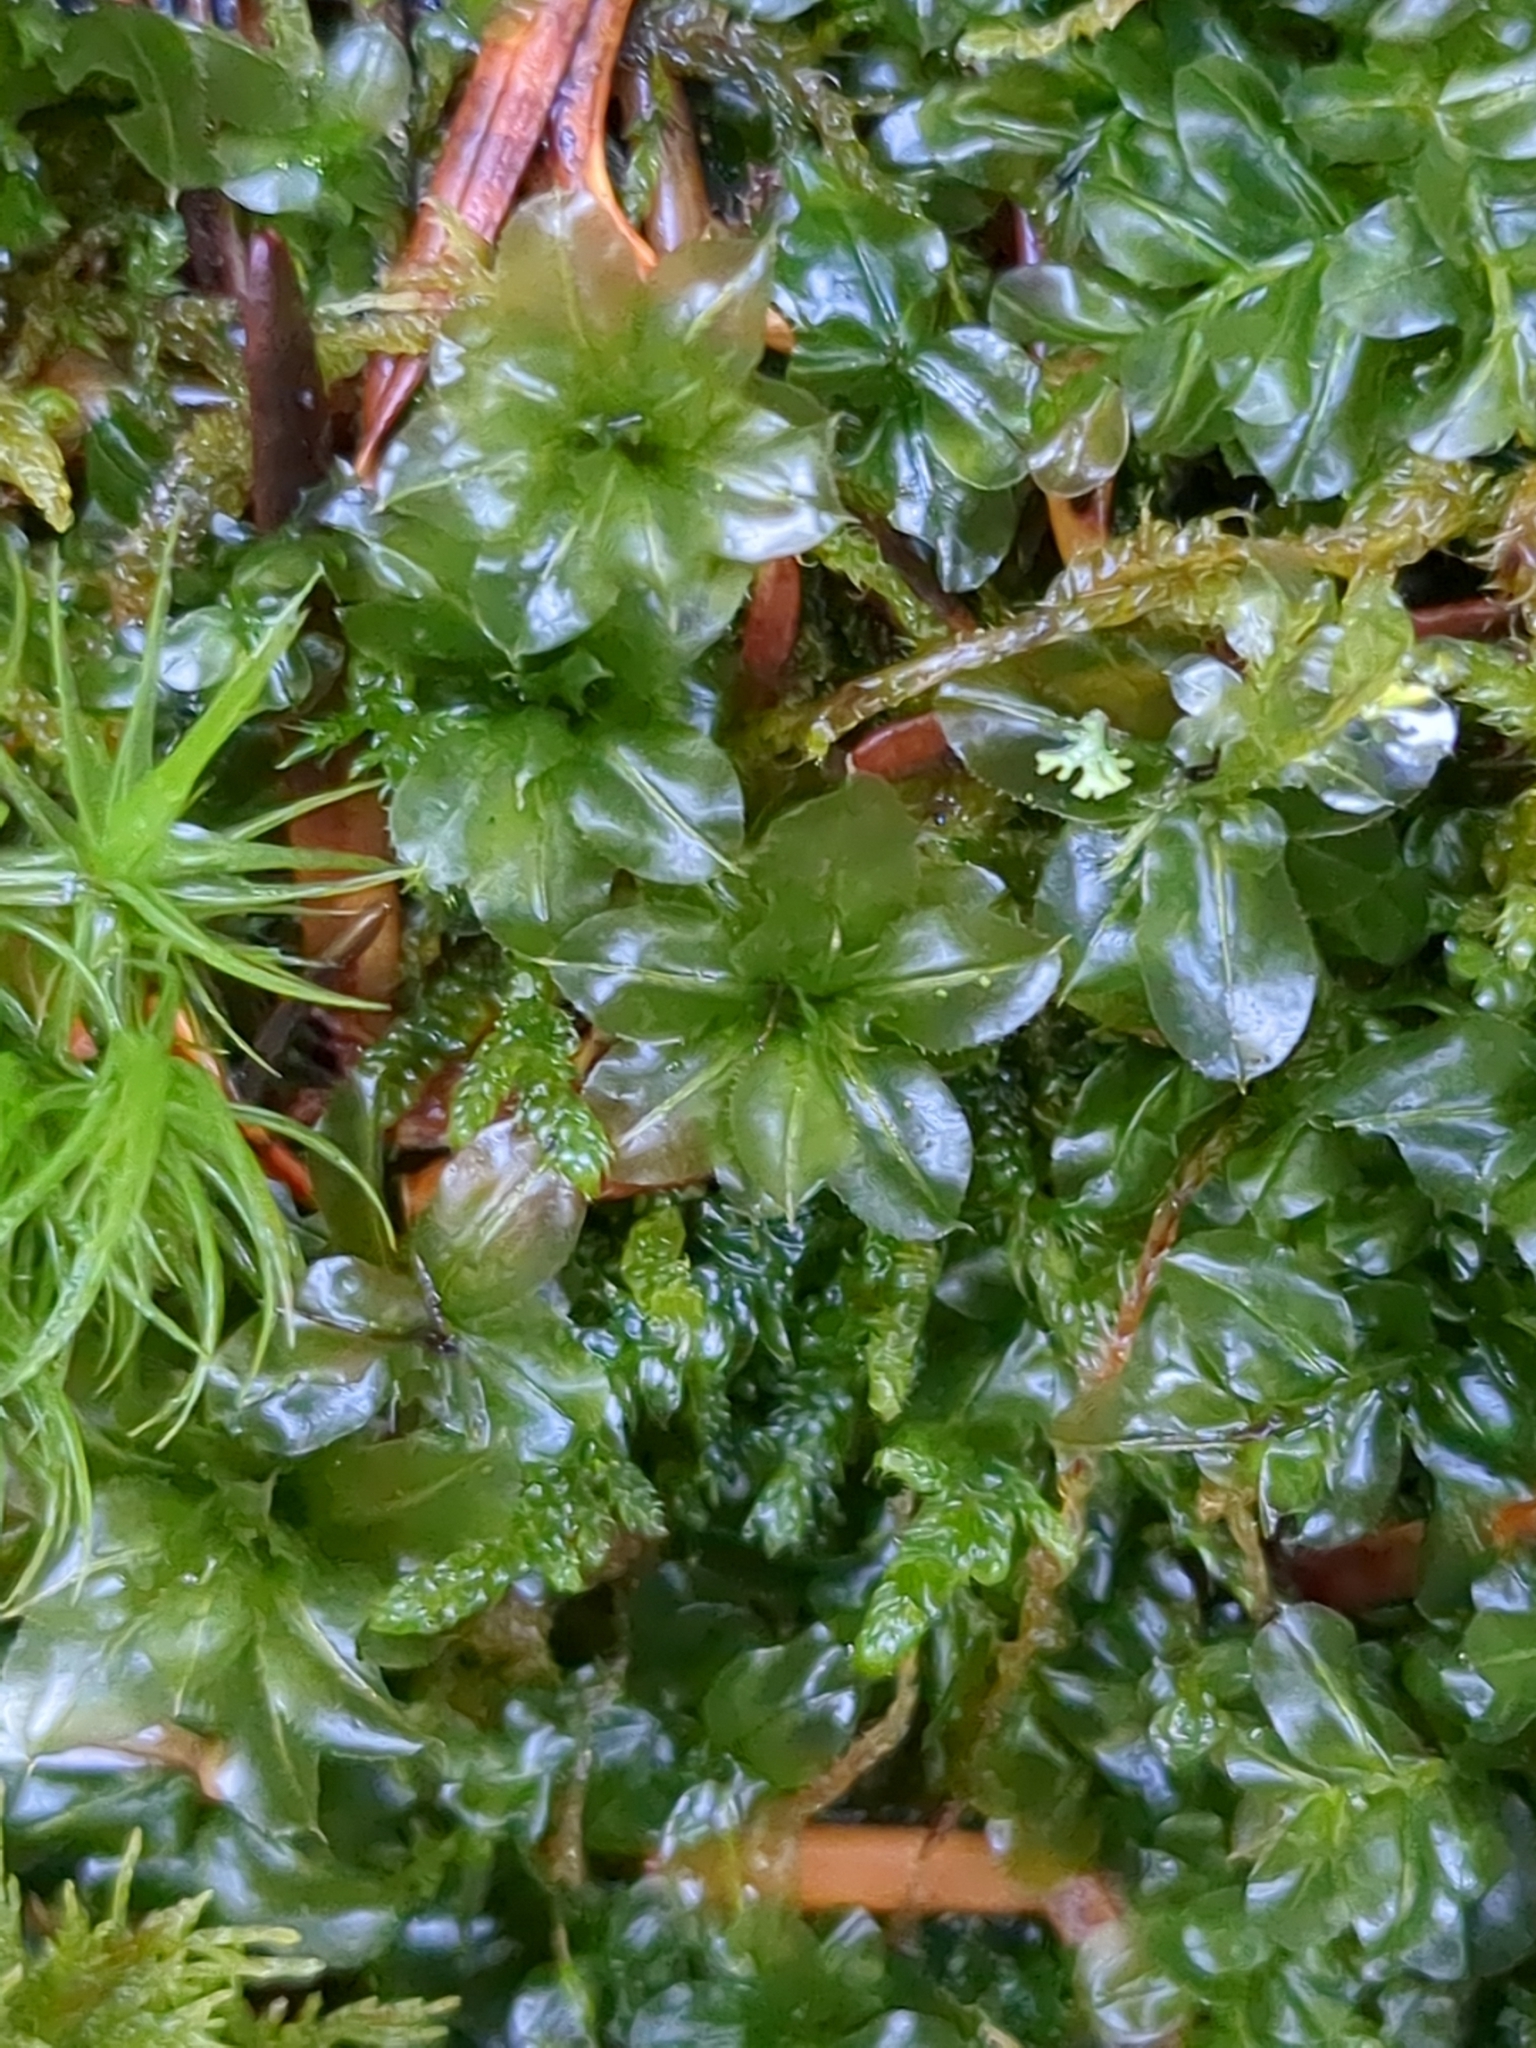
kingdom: Plantae
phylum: Bryophyta
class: Bryopsida
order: Bryales
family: Mniaceae
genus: Plagiomnium
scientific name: Plagiomnium affine
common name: Many-fruited thyme-moss
